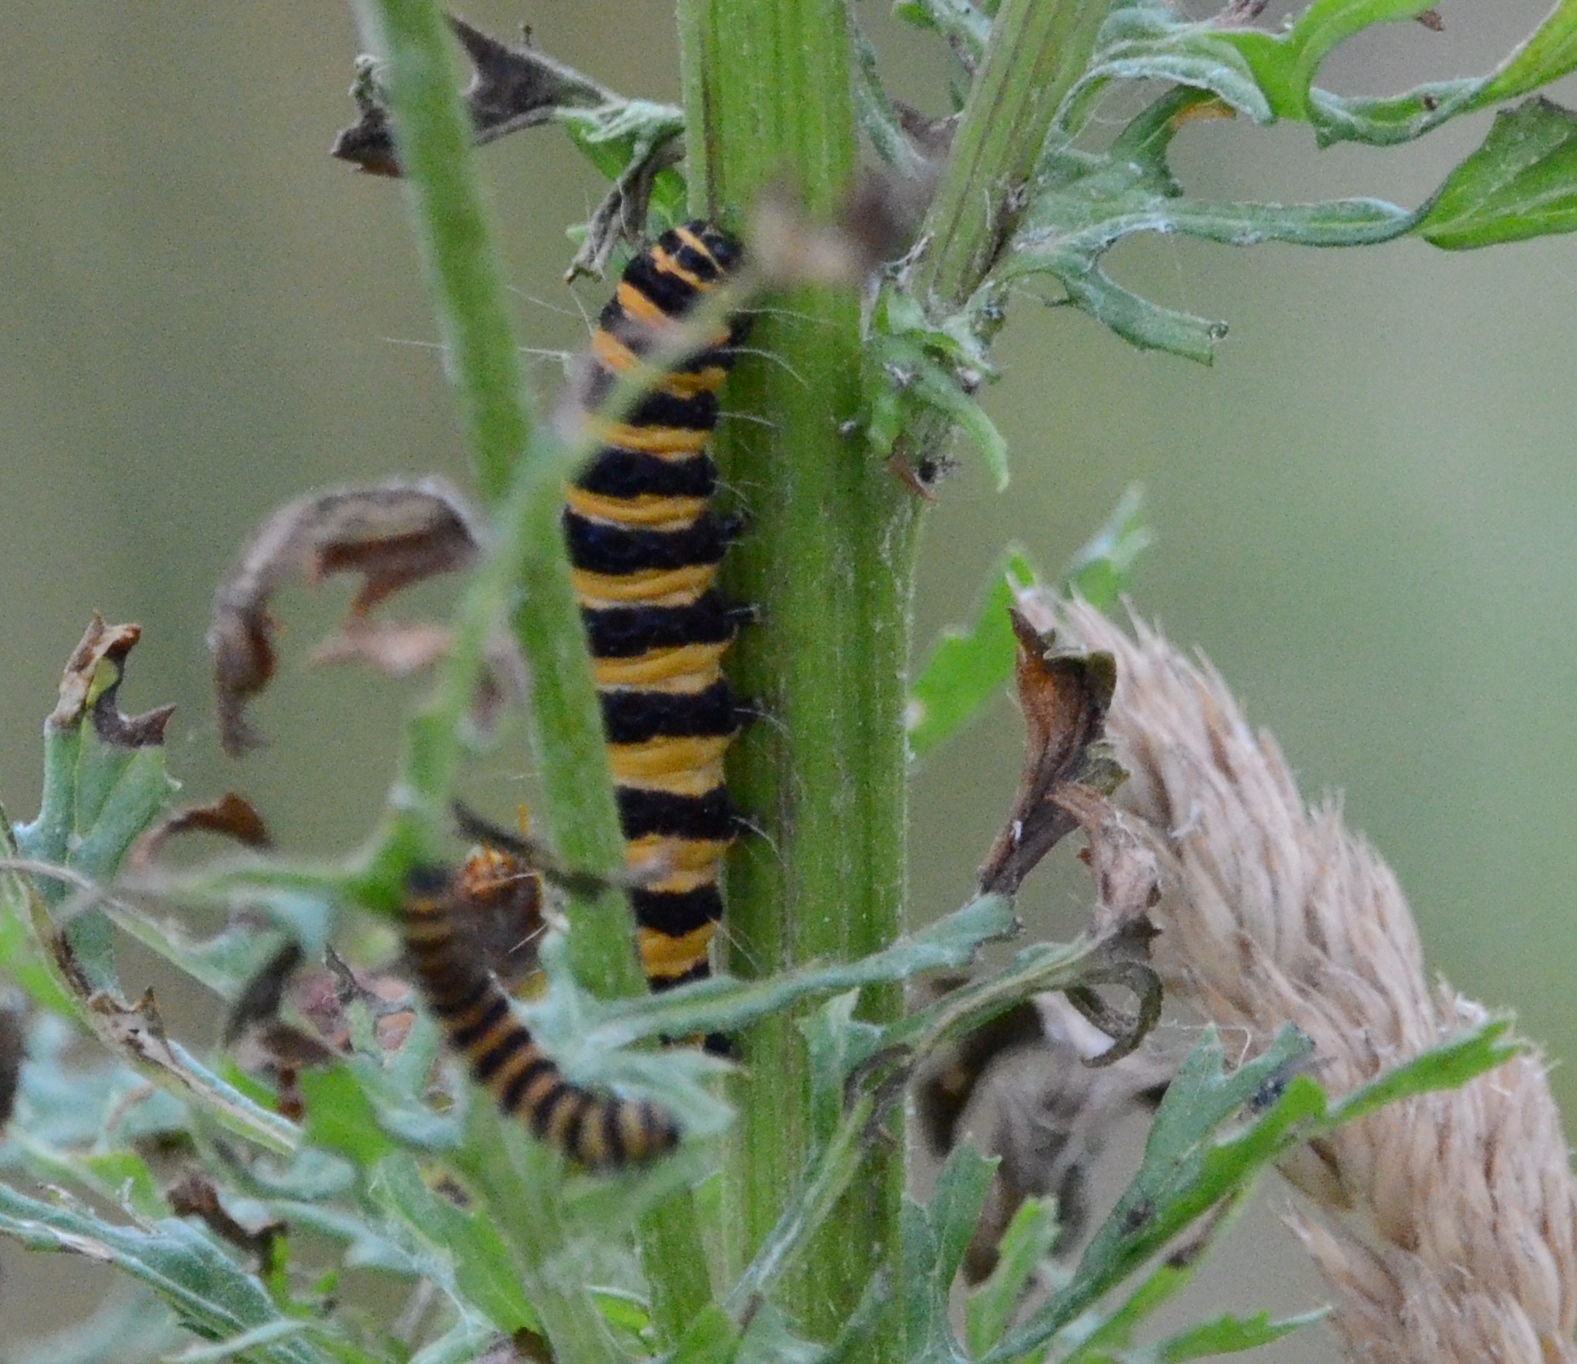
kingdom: Animalia
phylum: Arthropoda
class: Insecta
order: Lepidoptera
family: Erebidae
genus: Tyria
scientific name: Tyria jacobaeae
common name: Cinnabar
